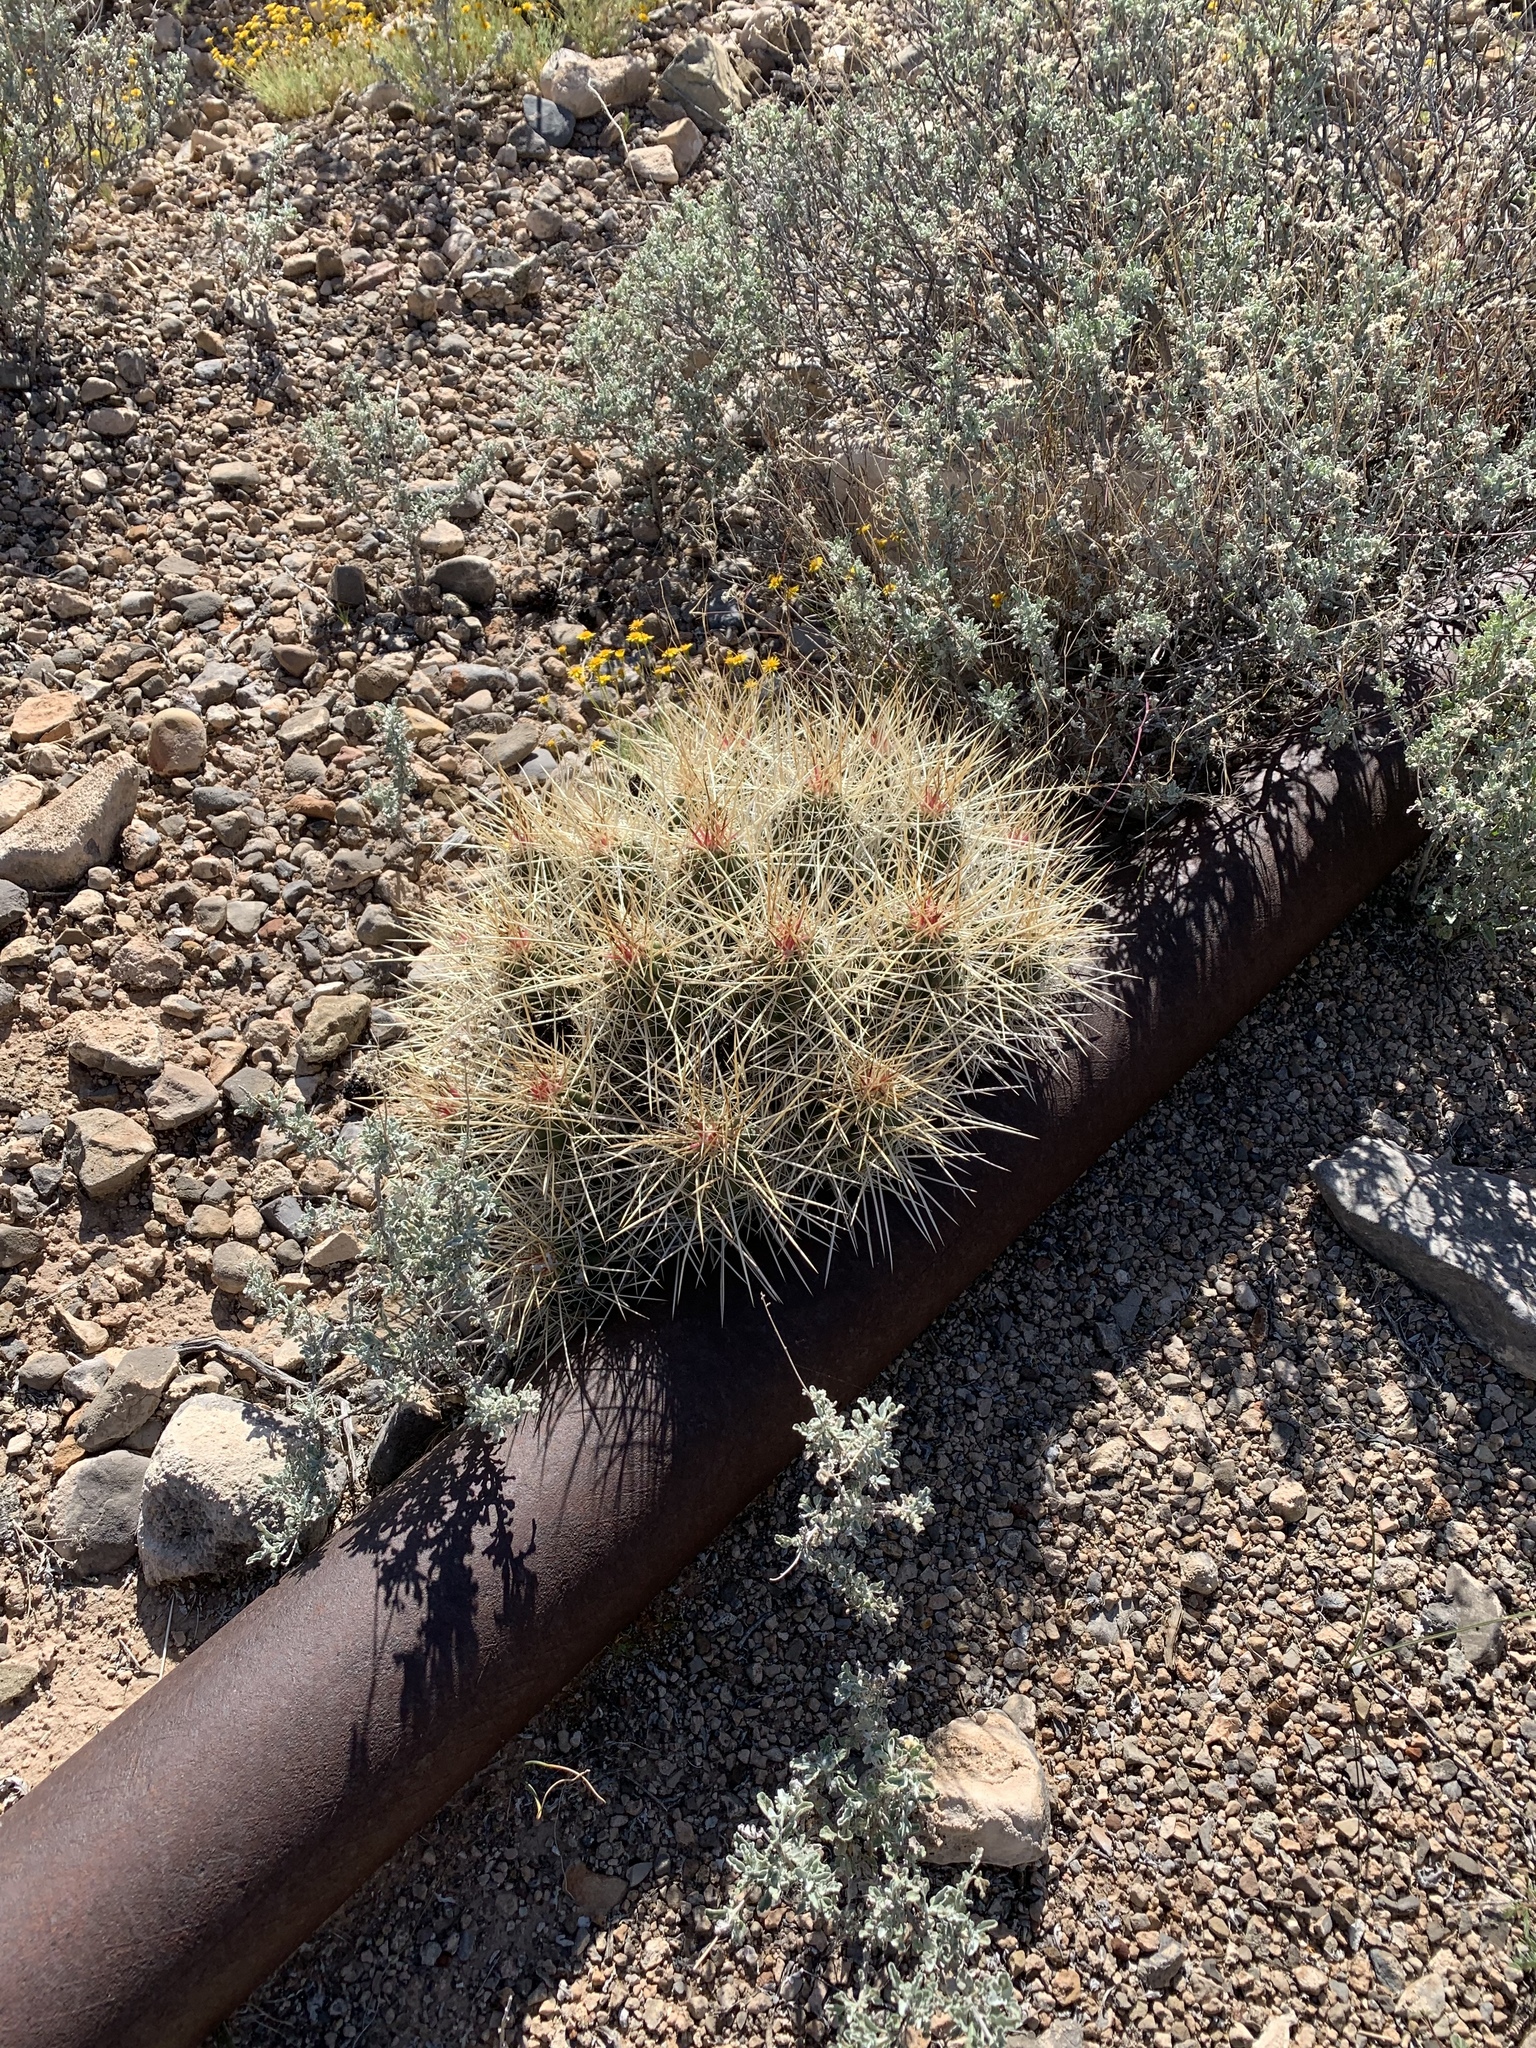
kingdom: Plantae
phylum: Tracheophyta
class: Magnoliopsida
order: Caryophyllales
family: Cactaceae
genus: Echinocereus
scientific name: Echinocereus stramineus
